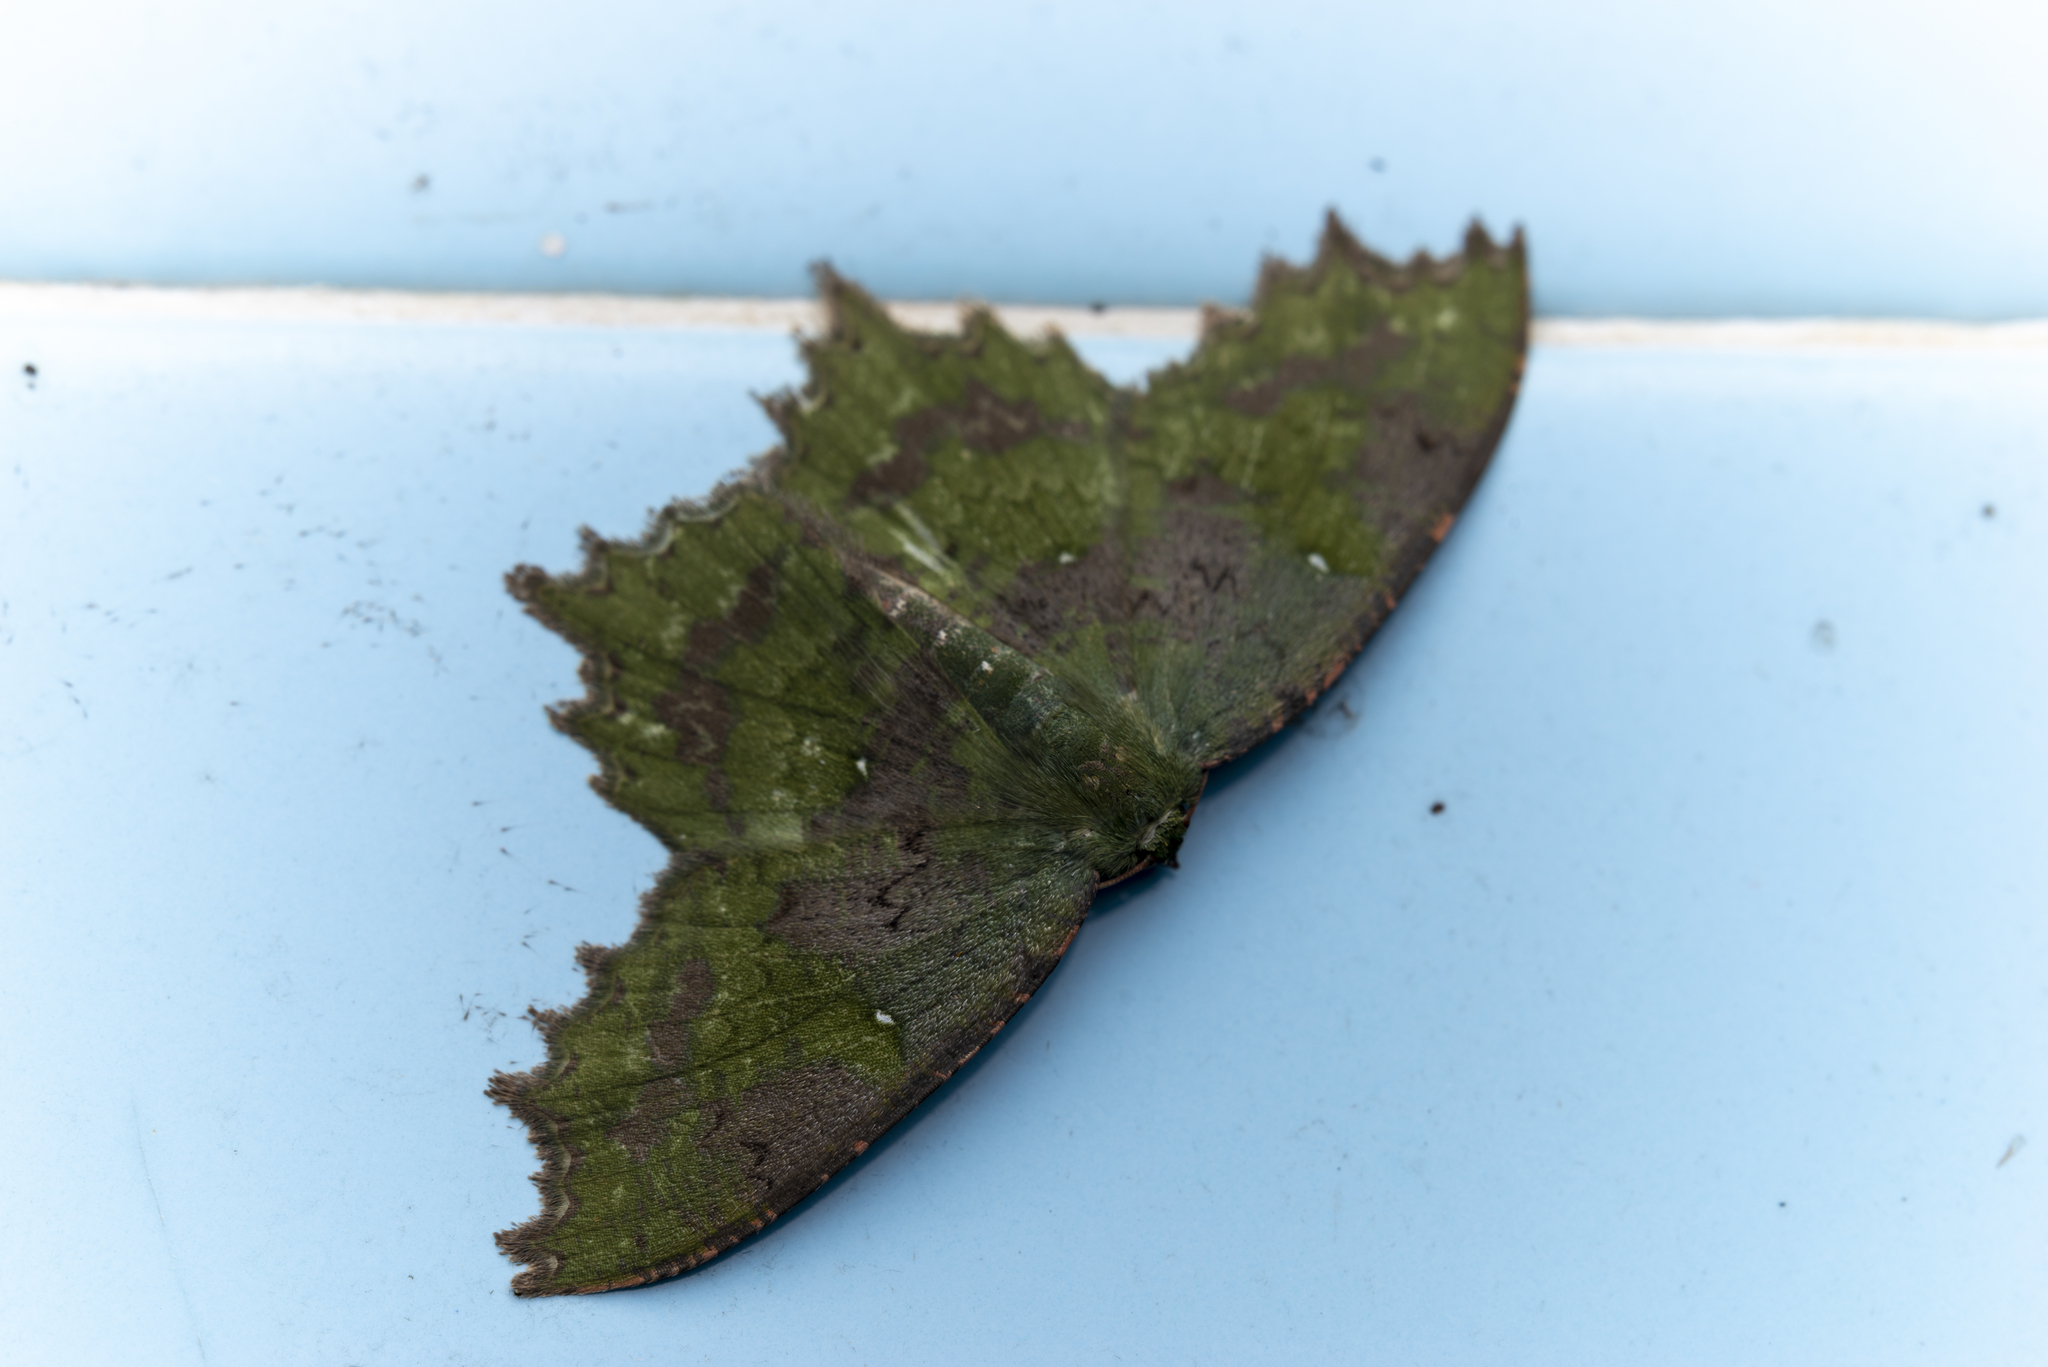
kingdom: Animalia
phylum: Arthropoda
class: Insecta
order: Lepidoptera
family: Geometridae
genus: Paramaxates
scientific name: Paramaxates vagata
